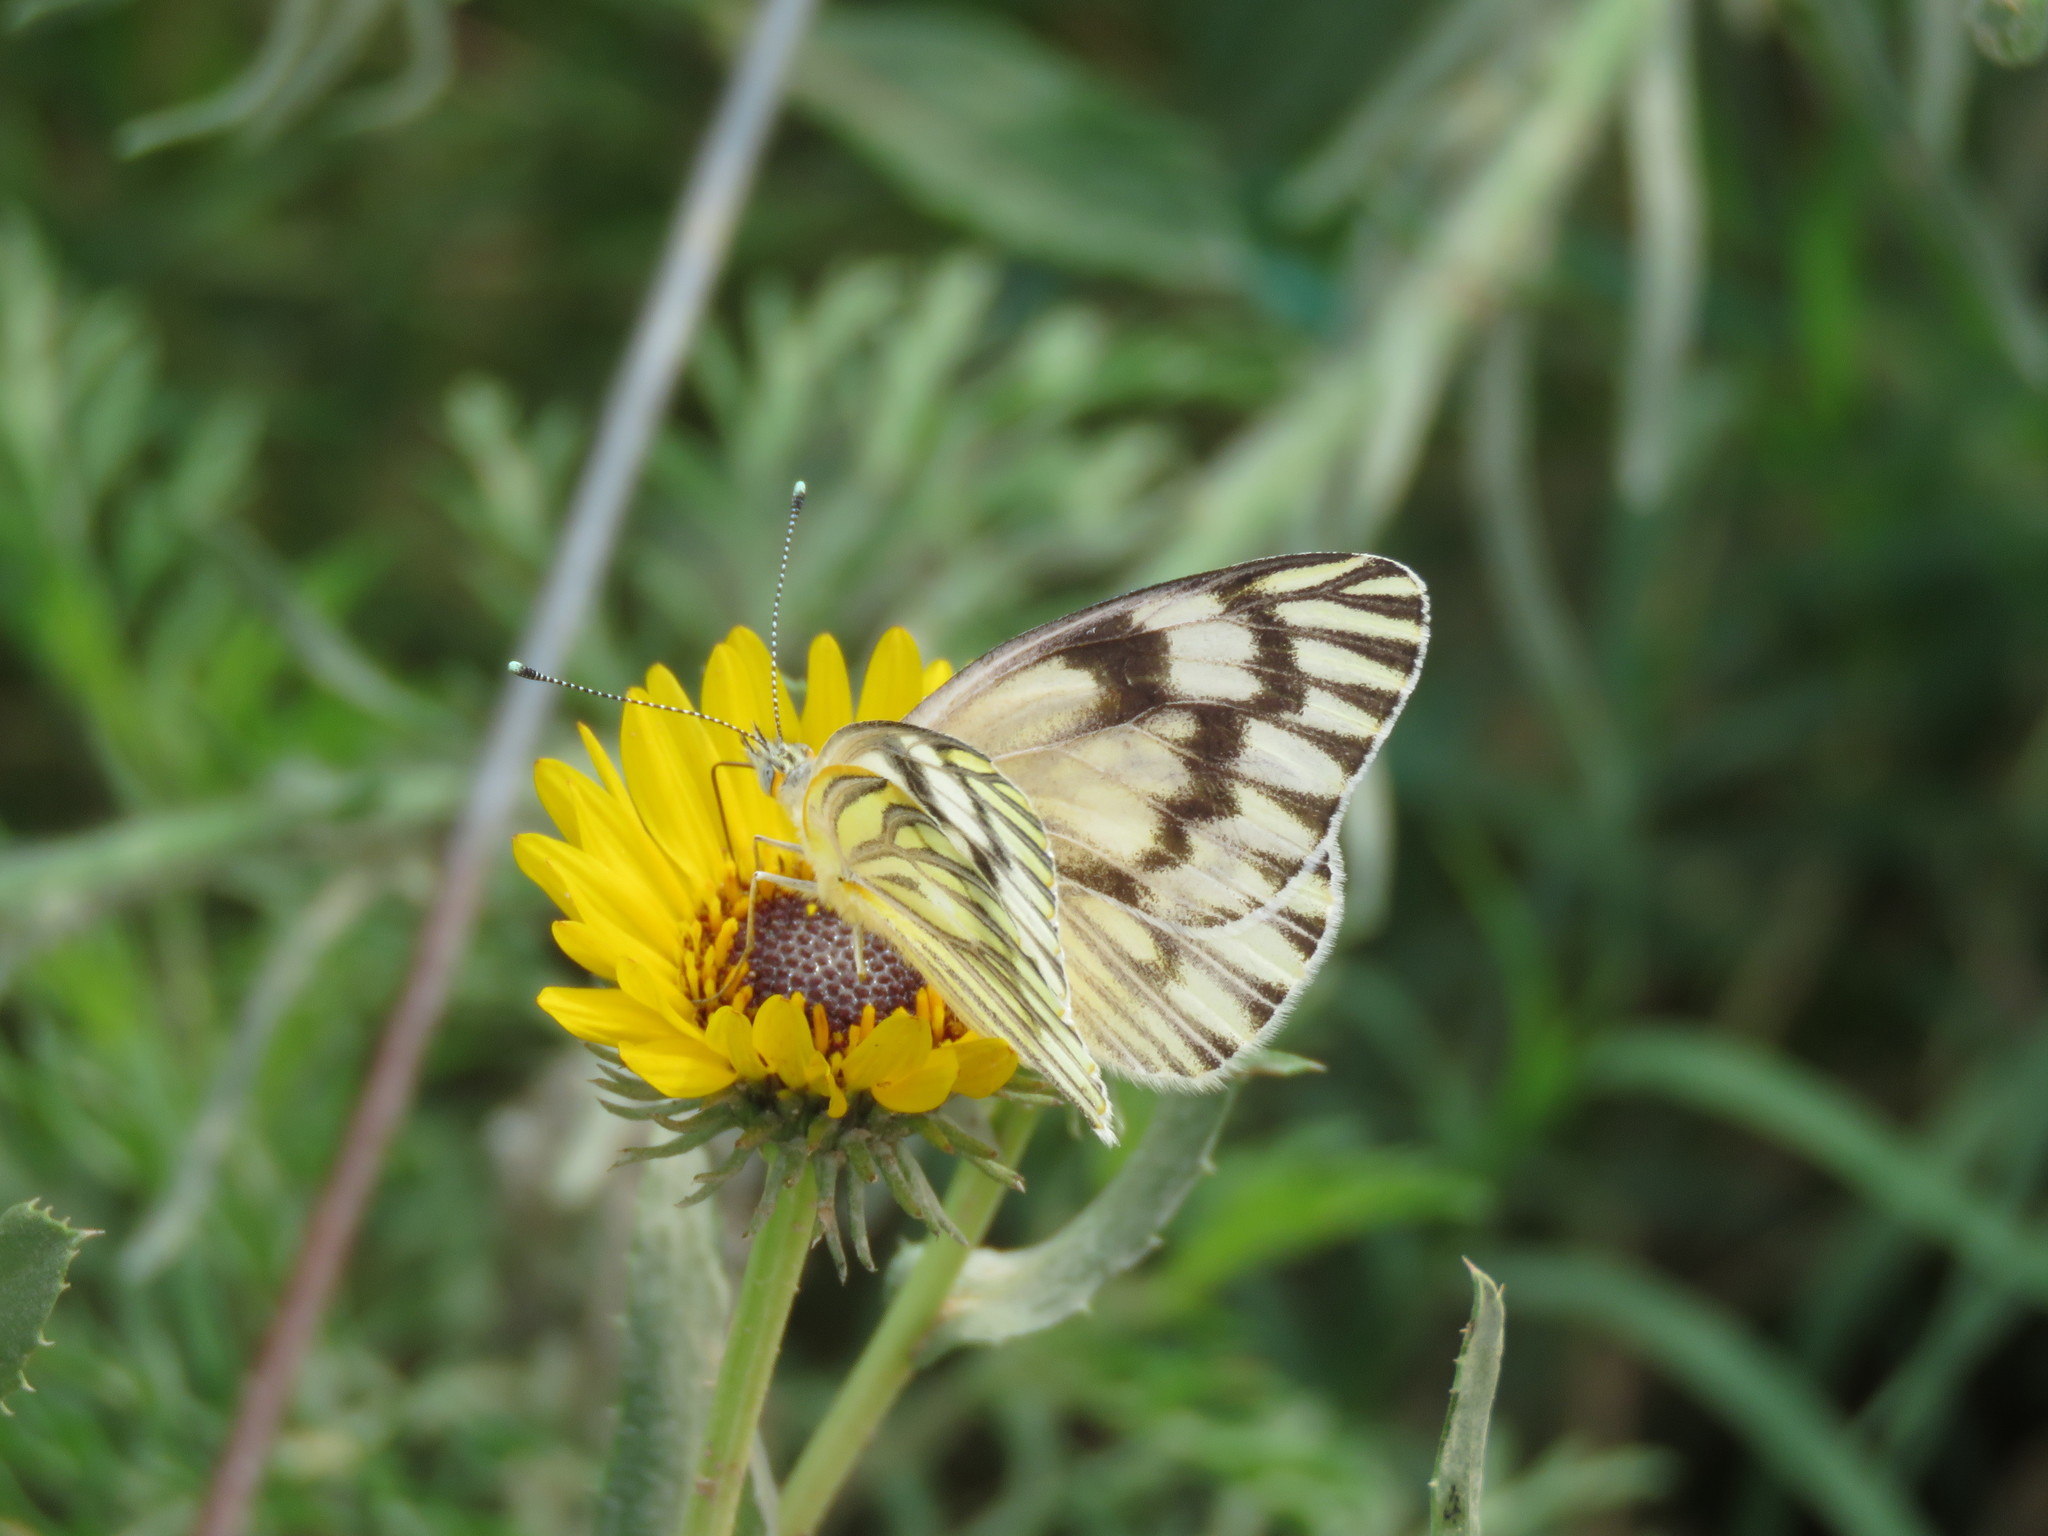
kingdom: Animalia
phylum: Arthropoda
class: Insecta
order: Lepidoptera
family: Pieridae
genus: Tatochila
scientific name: Tatochila mercedis
